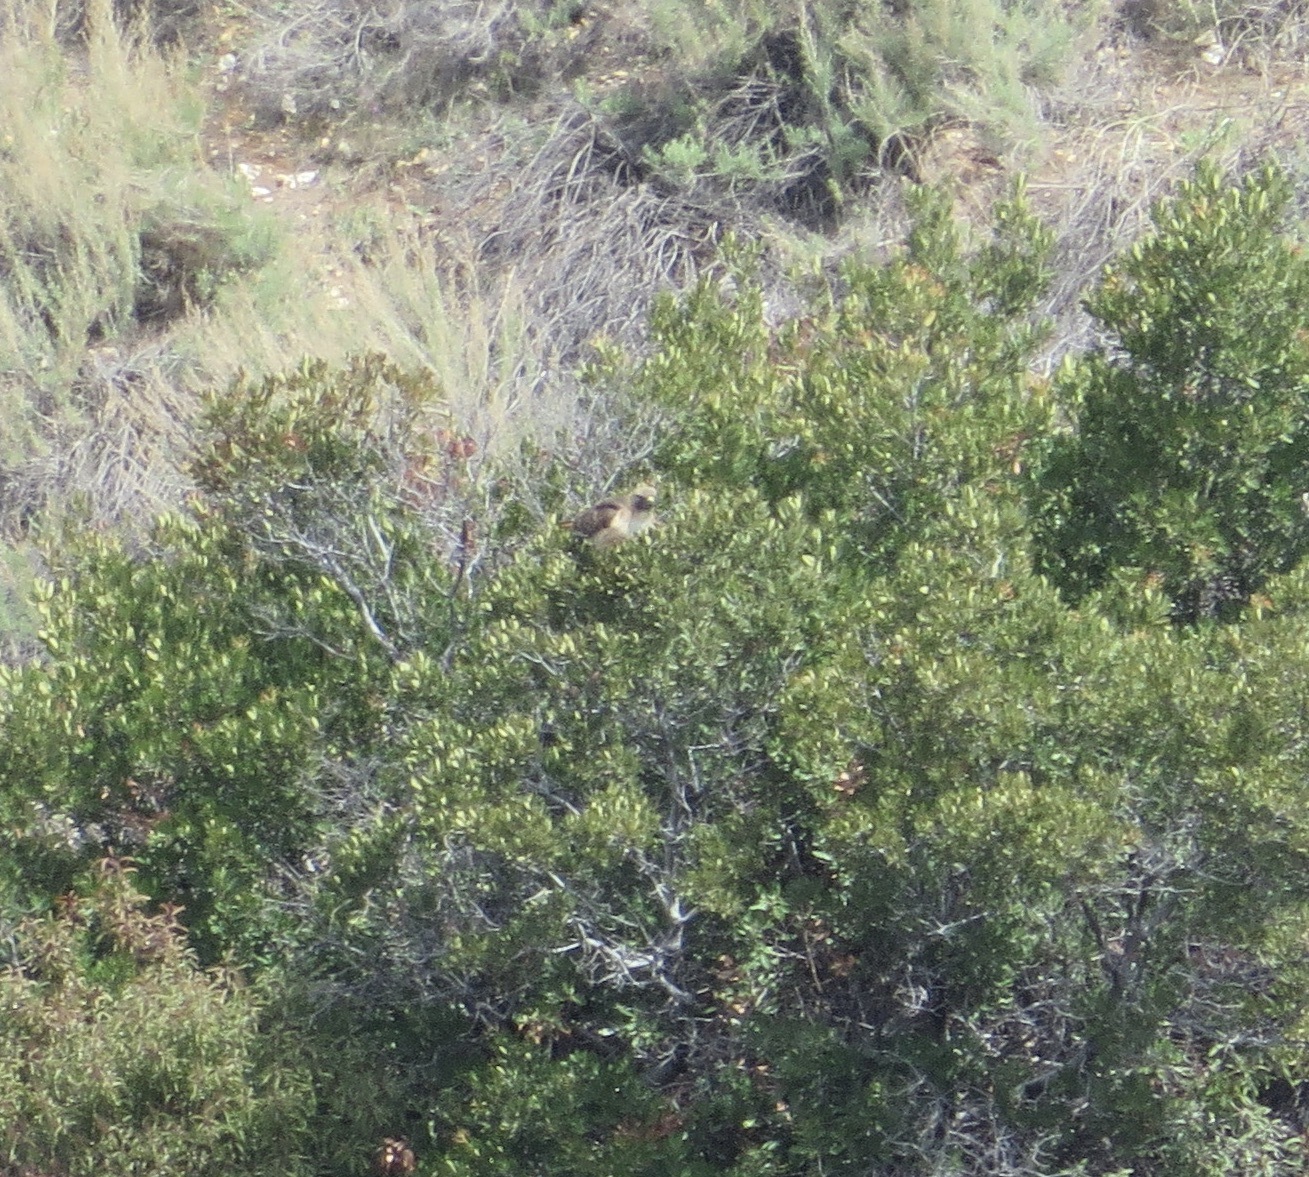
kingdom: Animalia
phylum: Chordata
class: Aves
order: Accipitriformes
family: Accipitridae
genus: Buteo
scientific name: Buteo jamaicensis
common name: Red-tailed hawk
